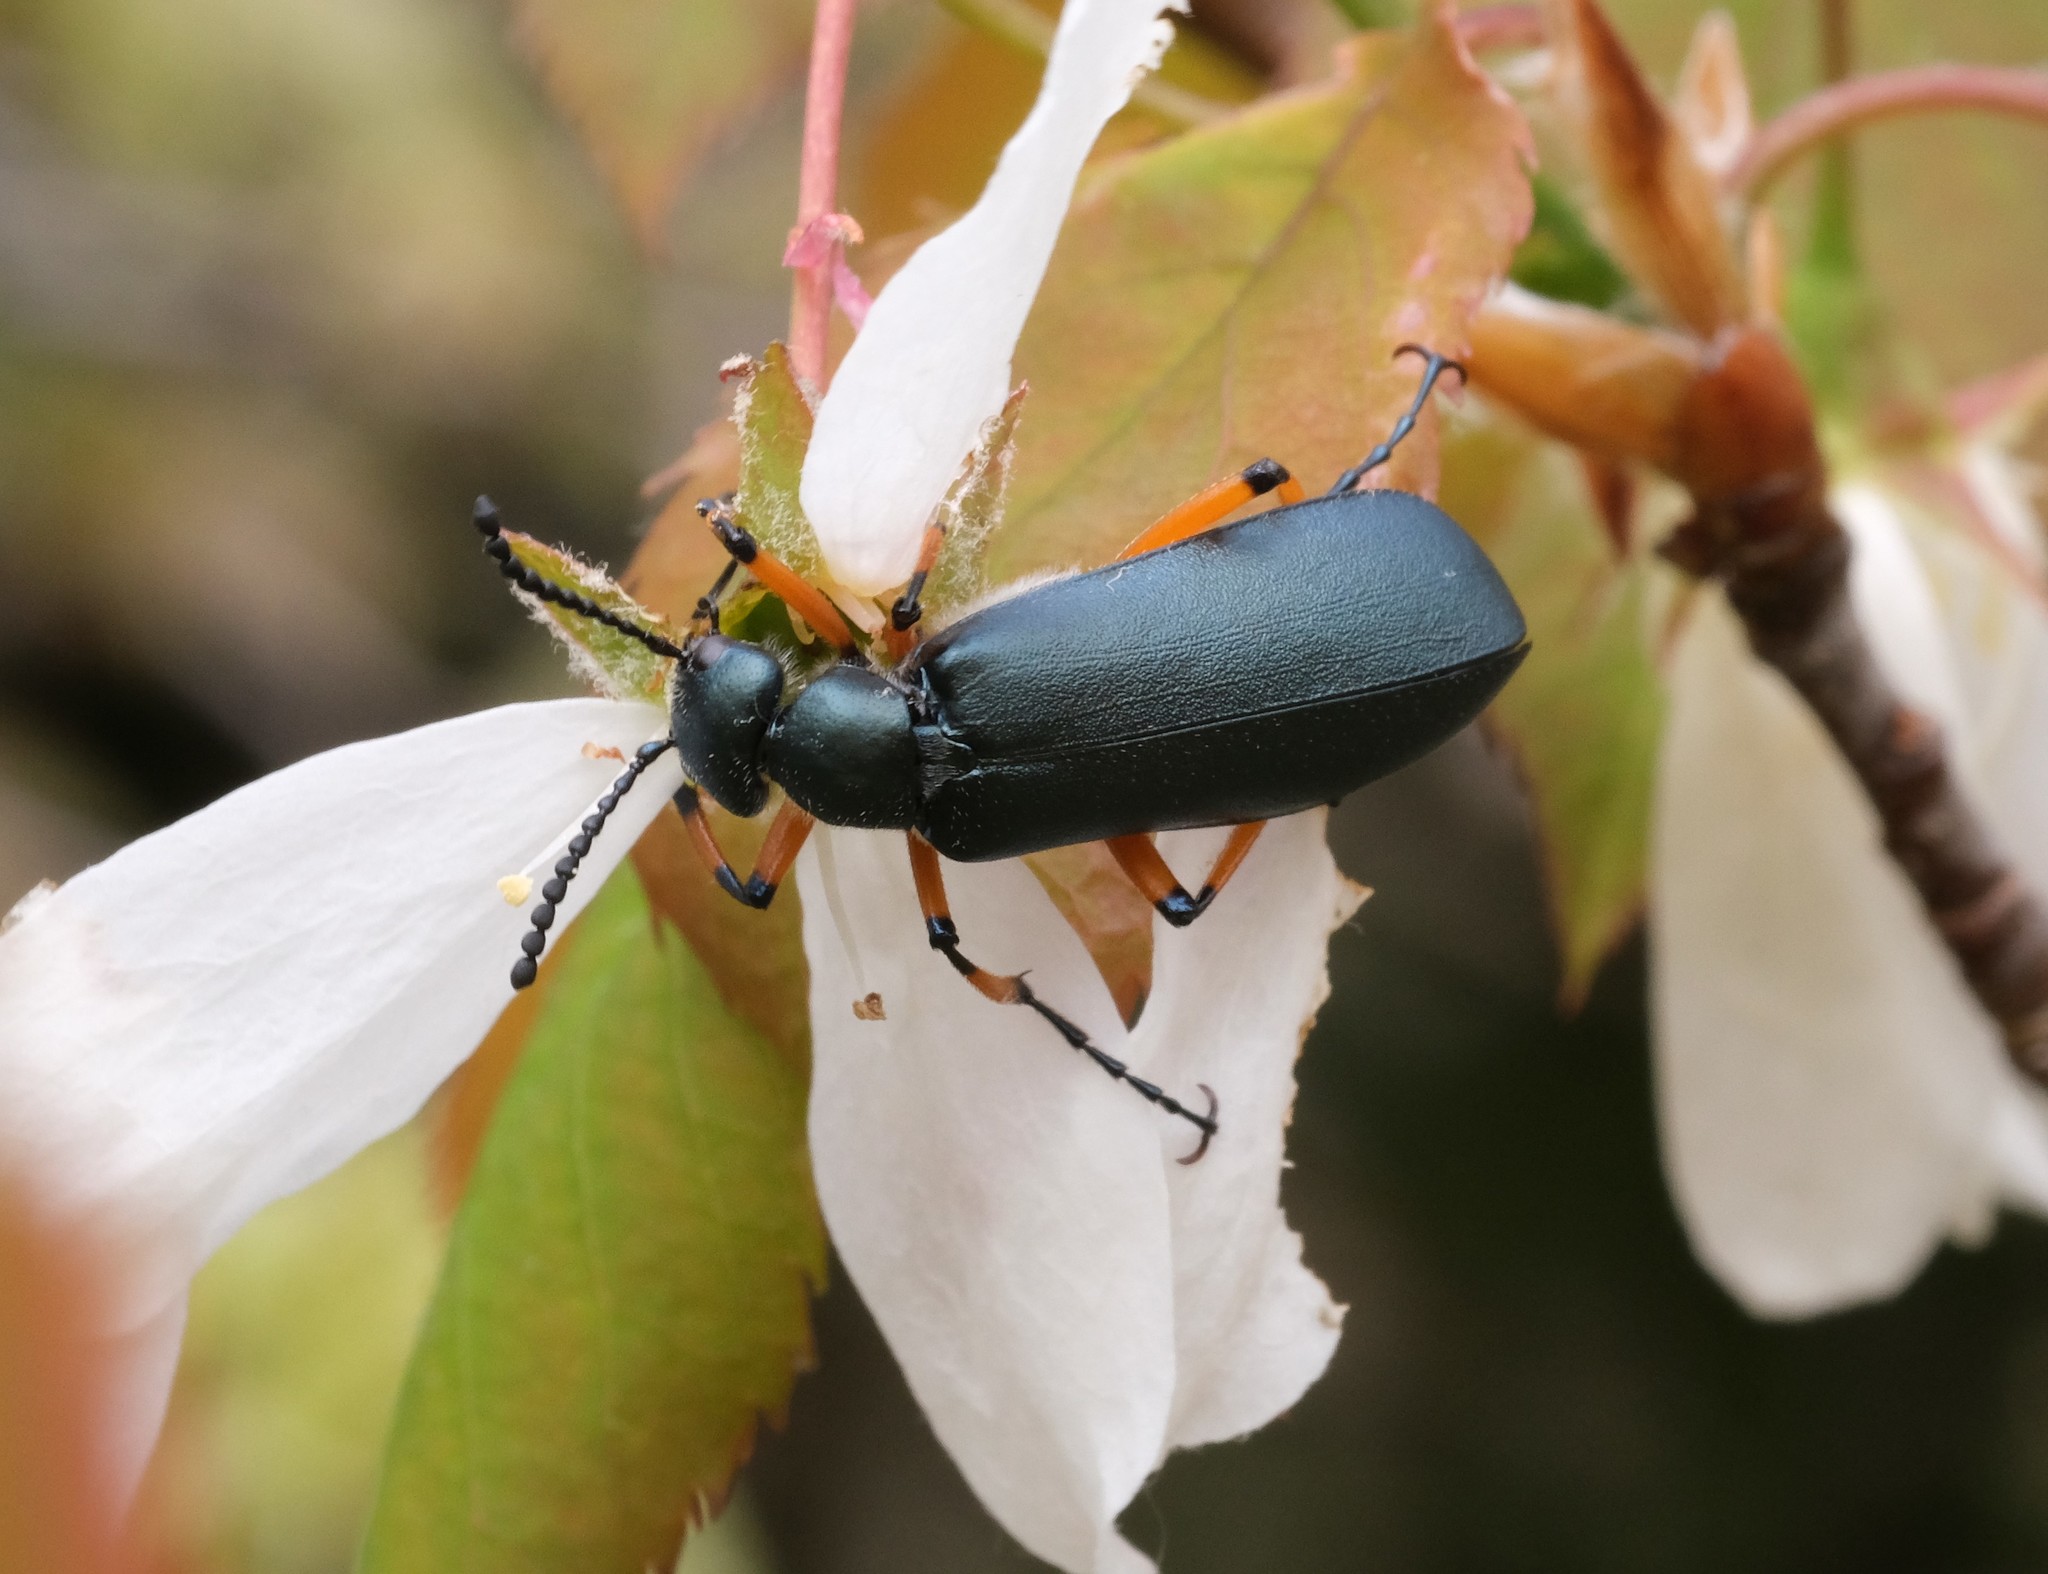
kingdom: Animalia
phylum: Arthropoda
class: Insecta
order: Coleoptera
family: Meloidae
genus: Lytta
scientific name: Lytta sayi
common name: Say's blister beetle
